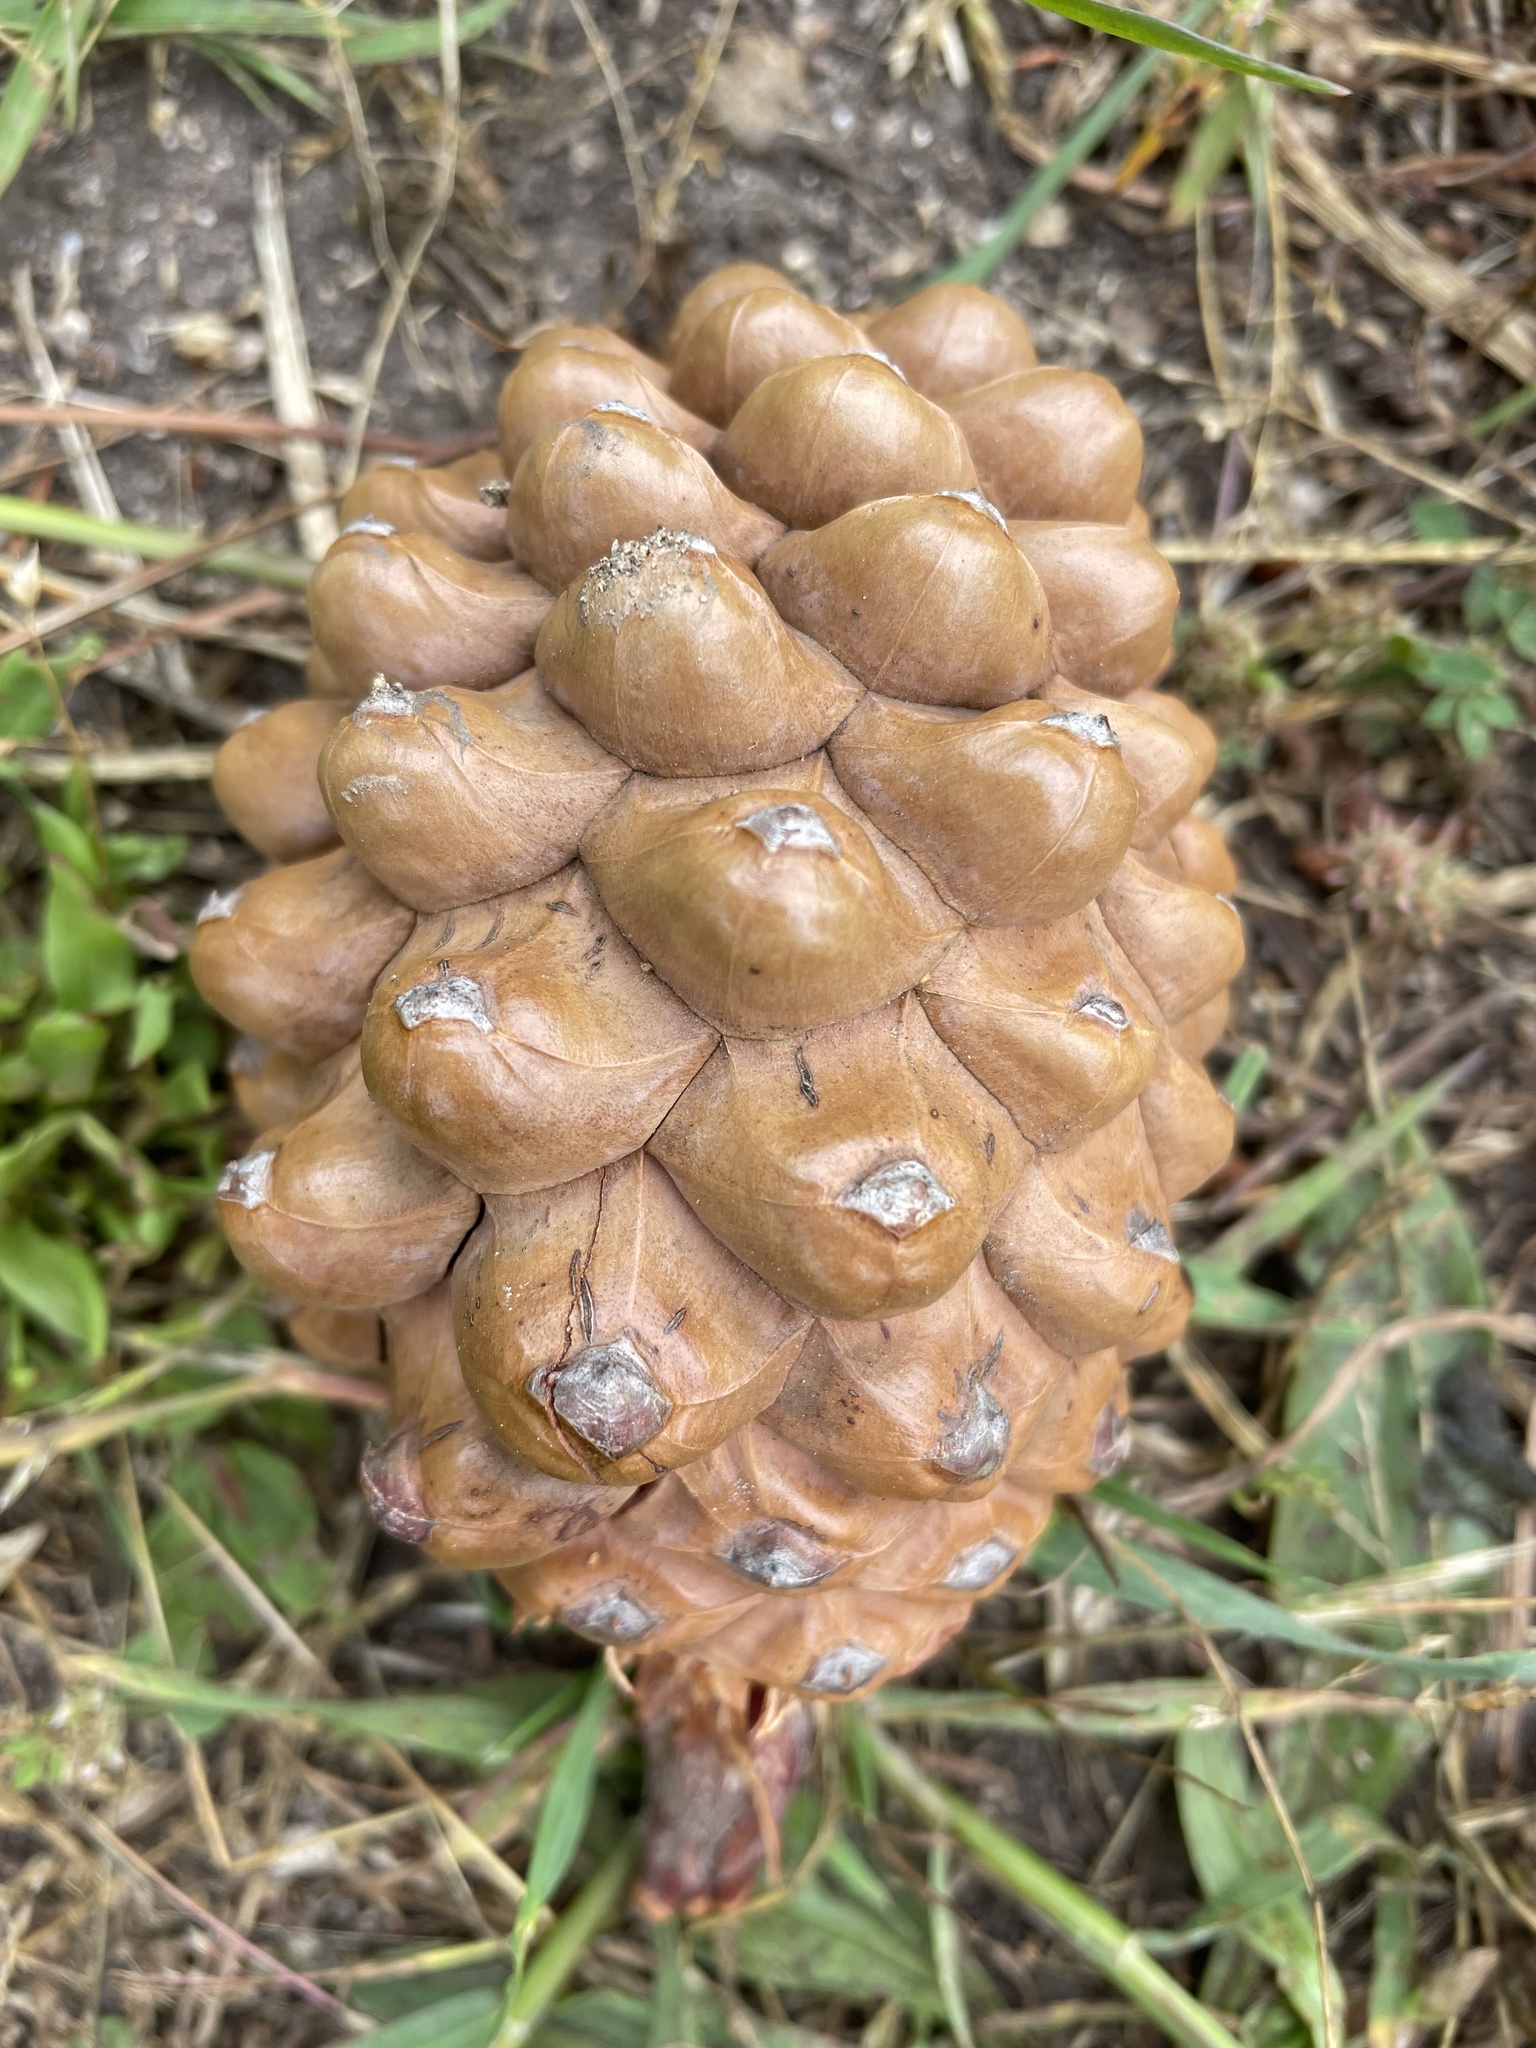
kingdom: Plantae
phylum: Tracheophyta
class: Pinopsida
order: Pinales
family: Pinaceae
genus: Pinus
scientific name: Pinus attenuata
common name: Knobcone pine
